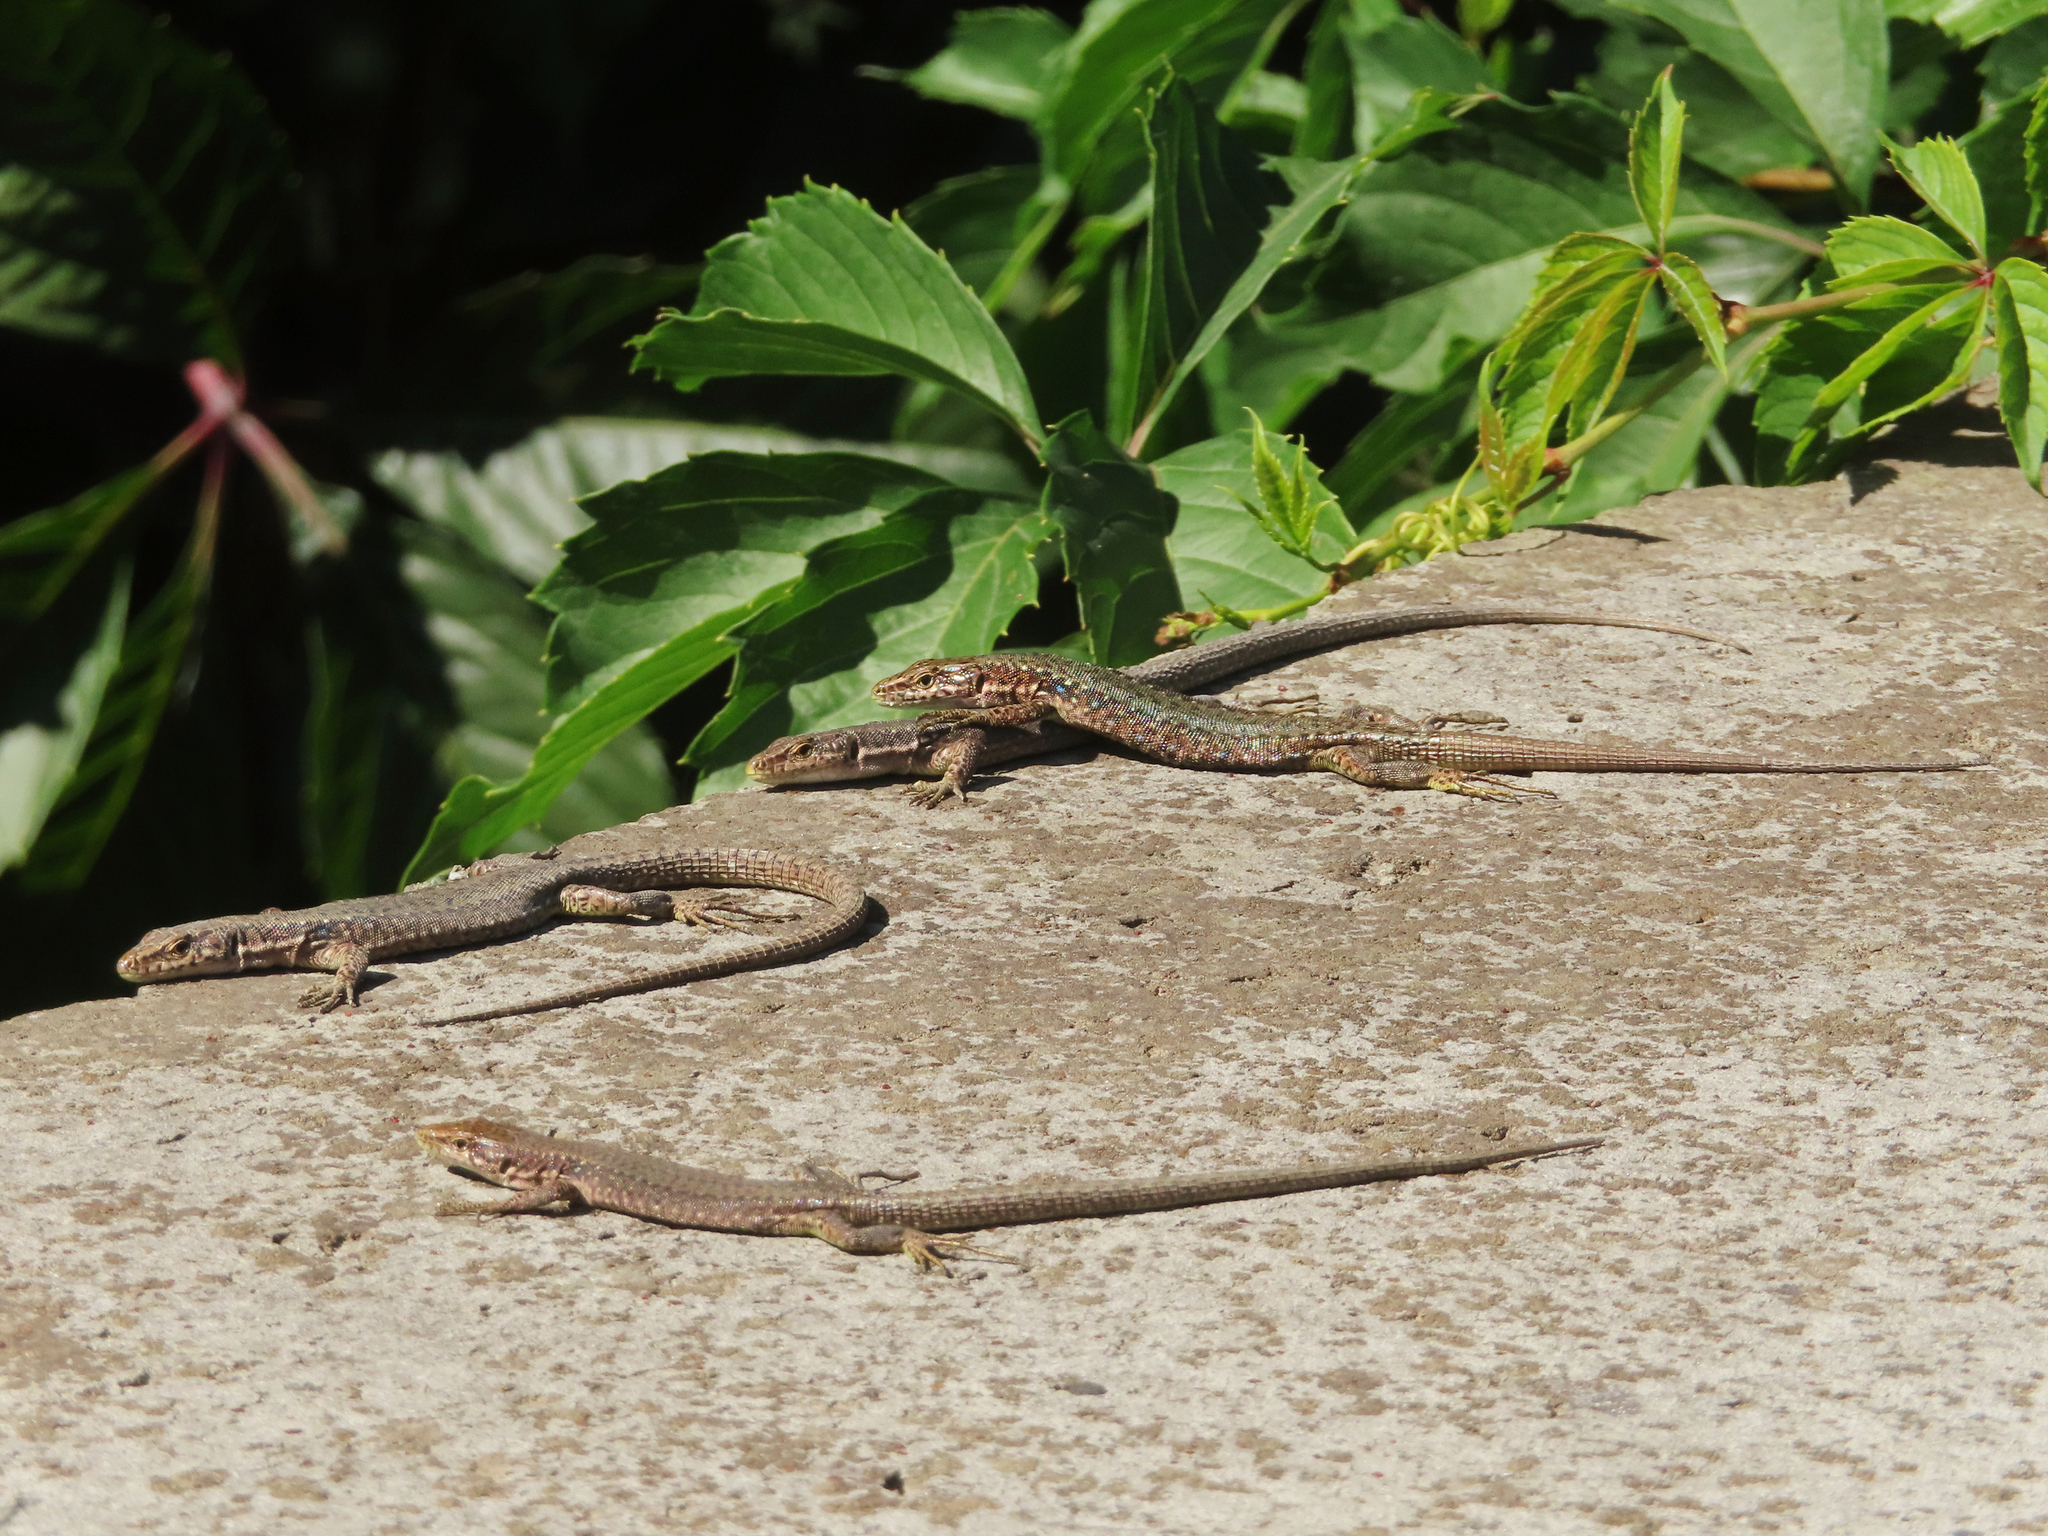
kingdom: Animalia
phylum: Chordata
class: Squamata
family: Lacertidae
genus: Darevskia
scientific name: Darevskia armeniaca
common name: Armenian lizard
